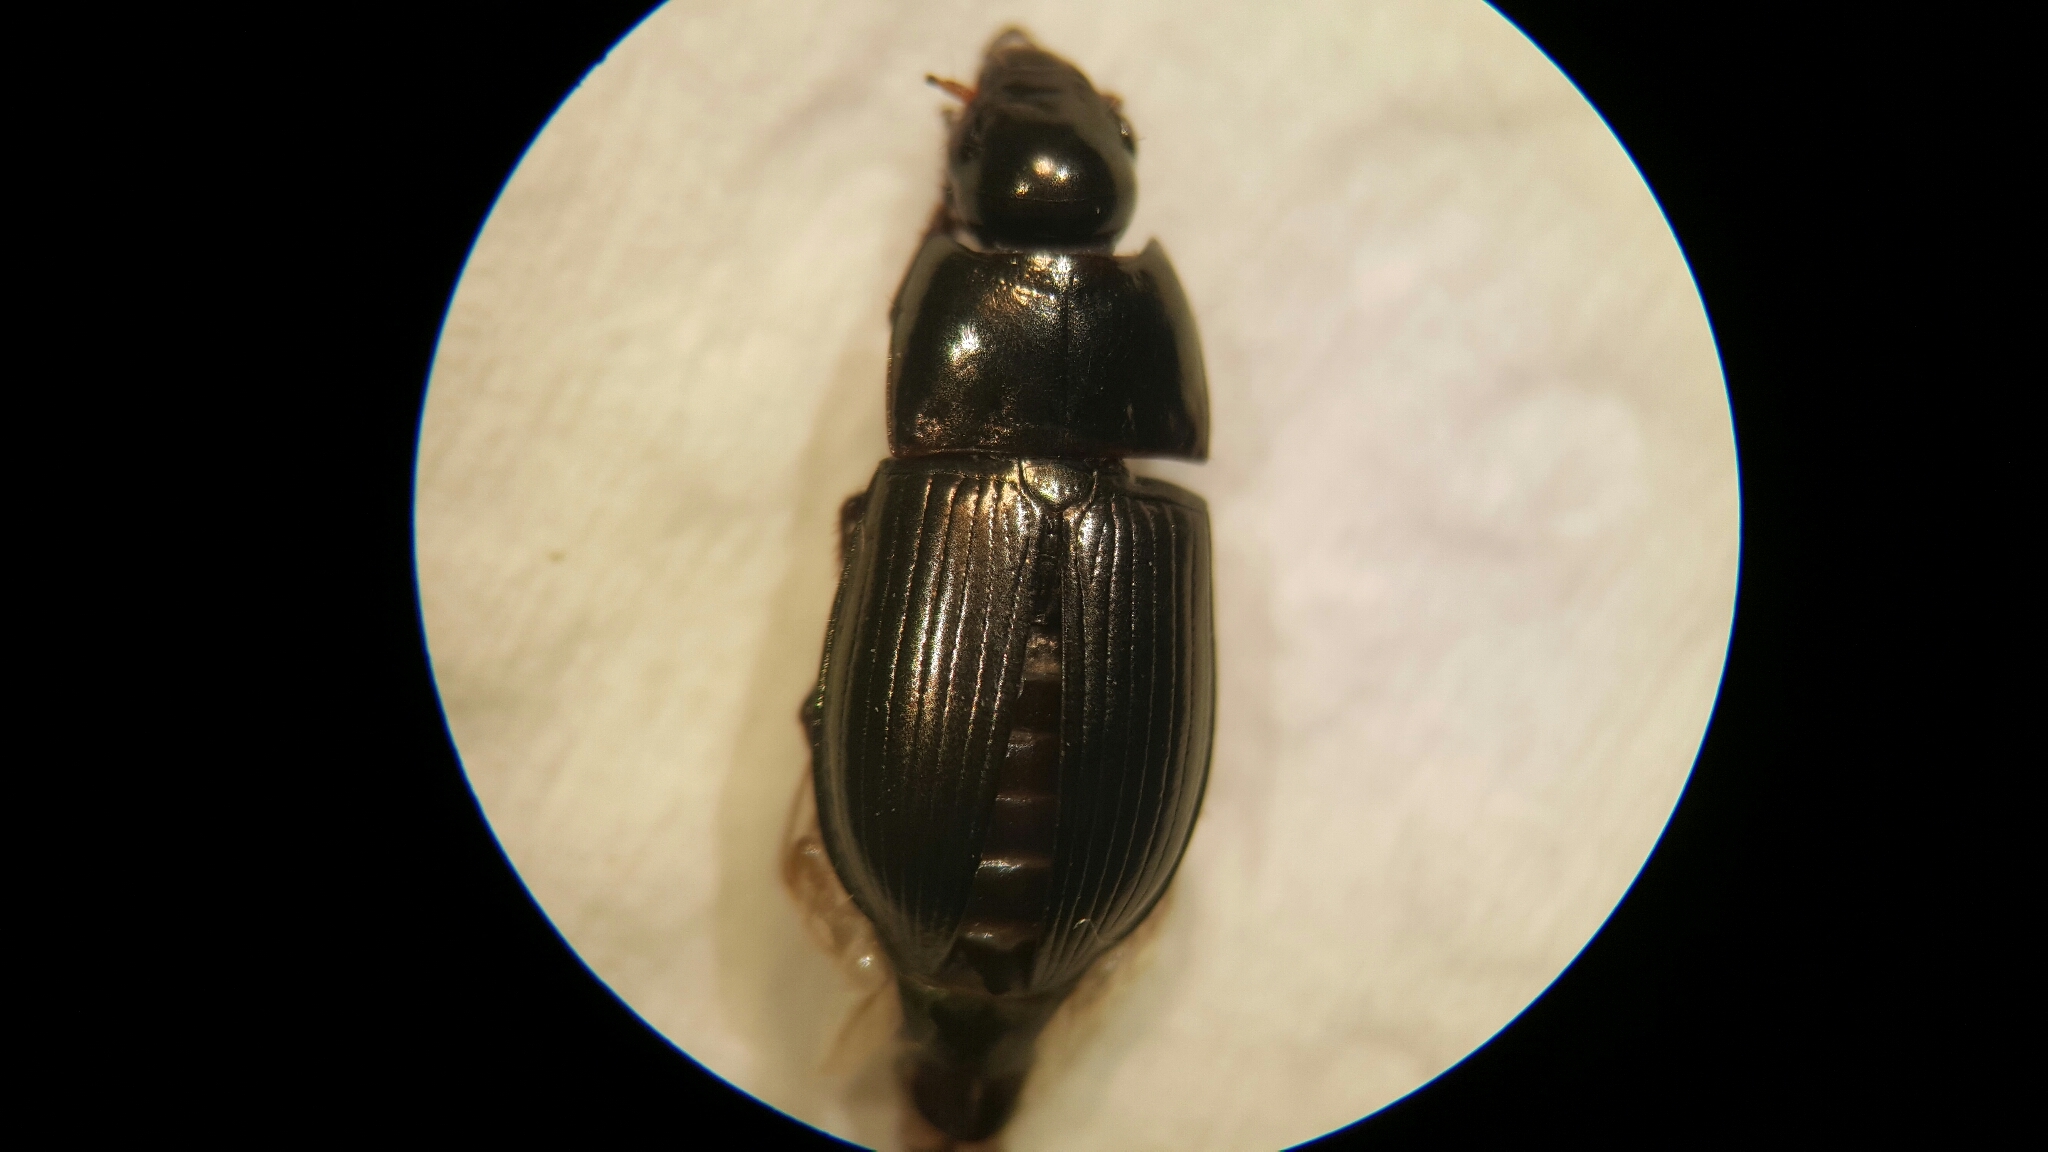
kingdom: Animalia
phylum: Arthropoda
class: Insecta
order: Coleoptera
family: Carabidae
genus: Amara
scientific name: Amara
